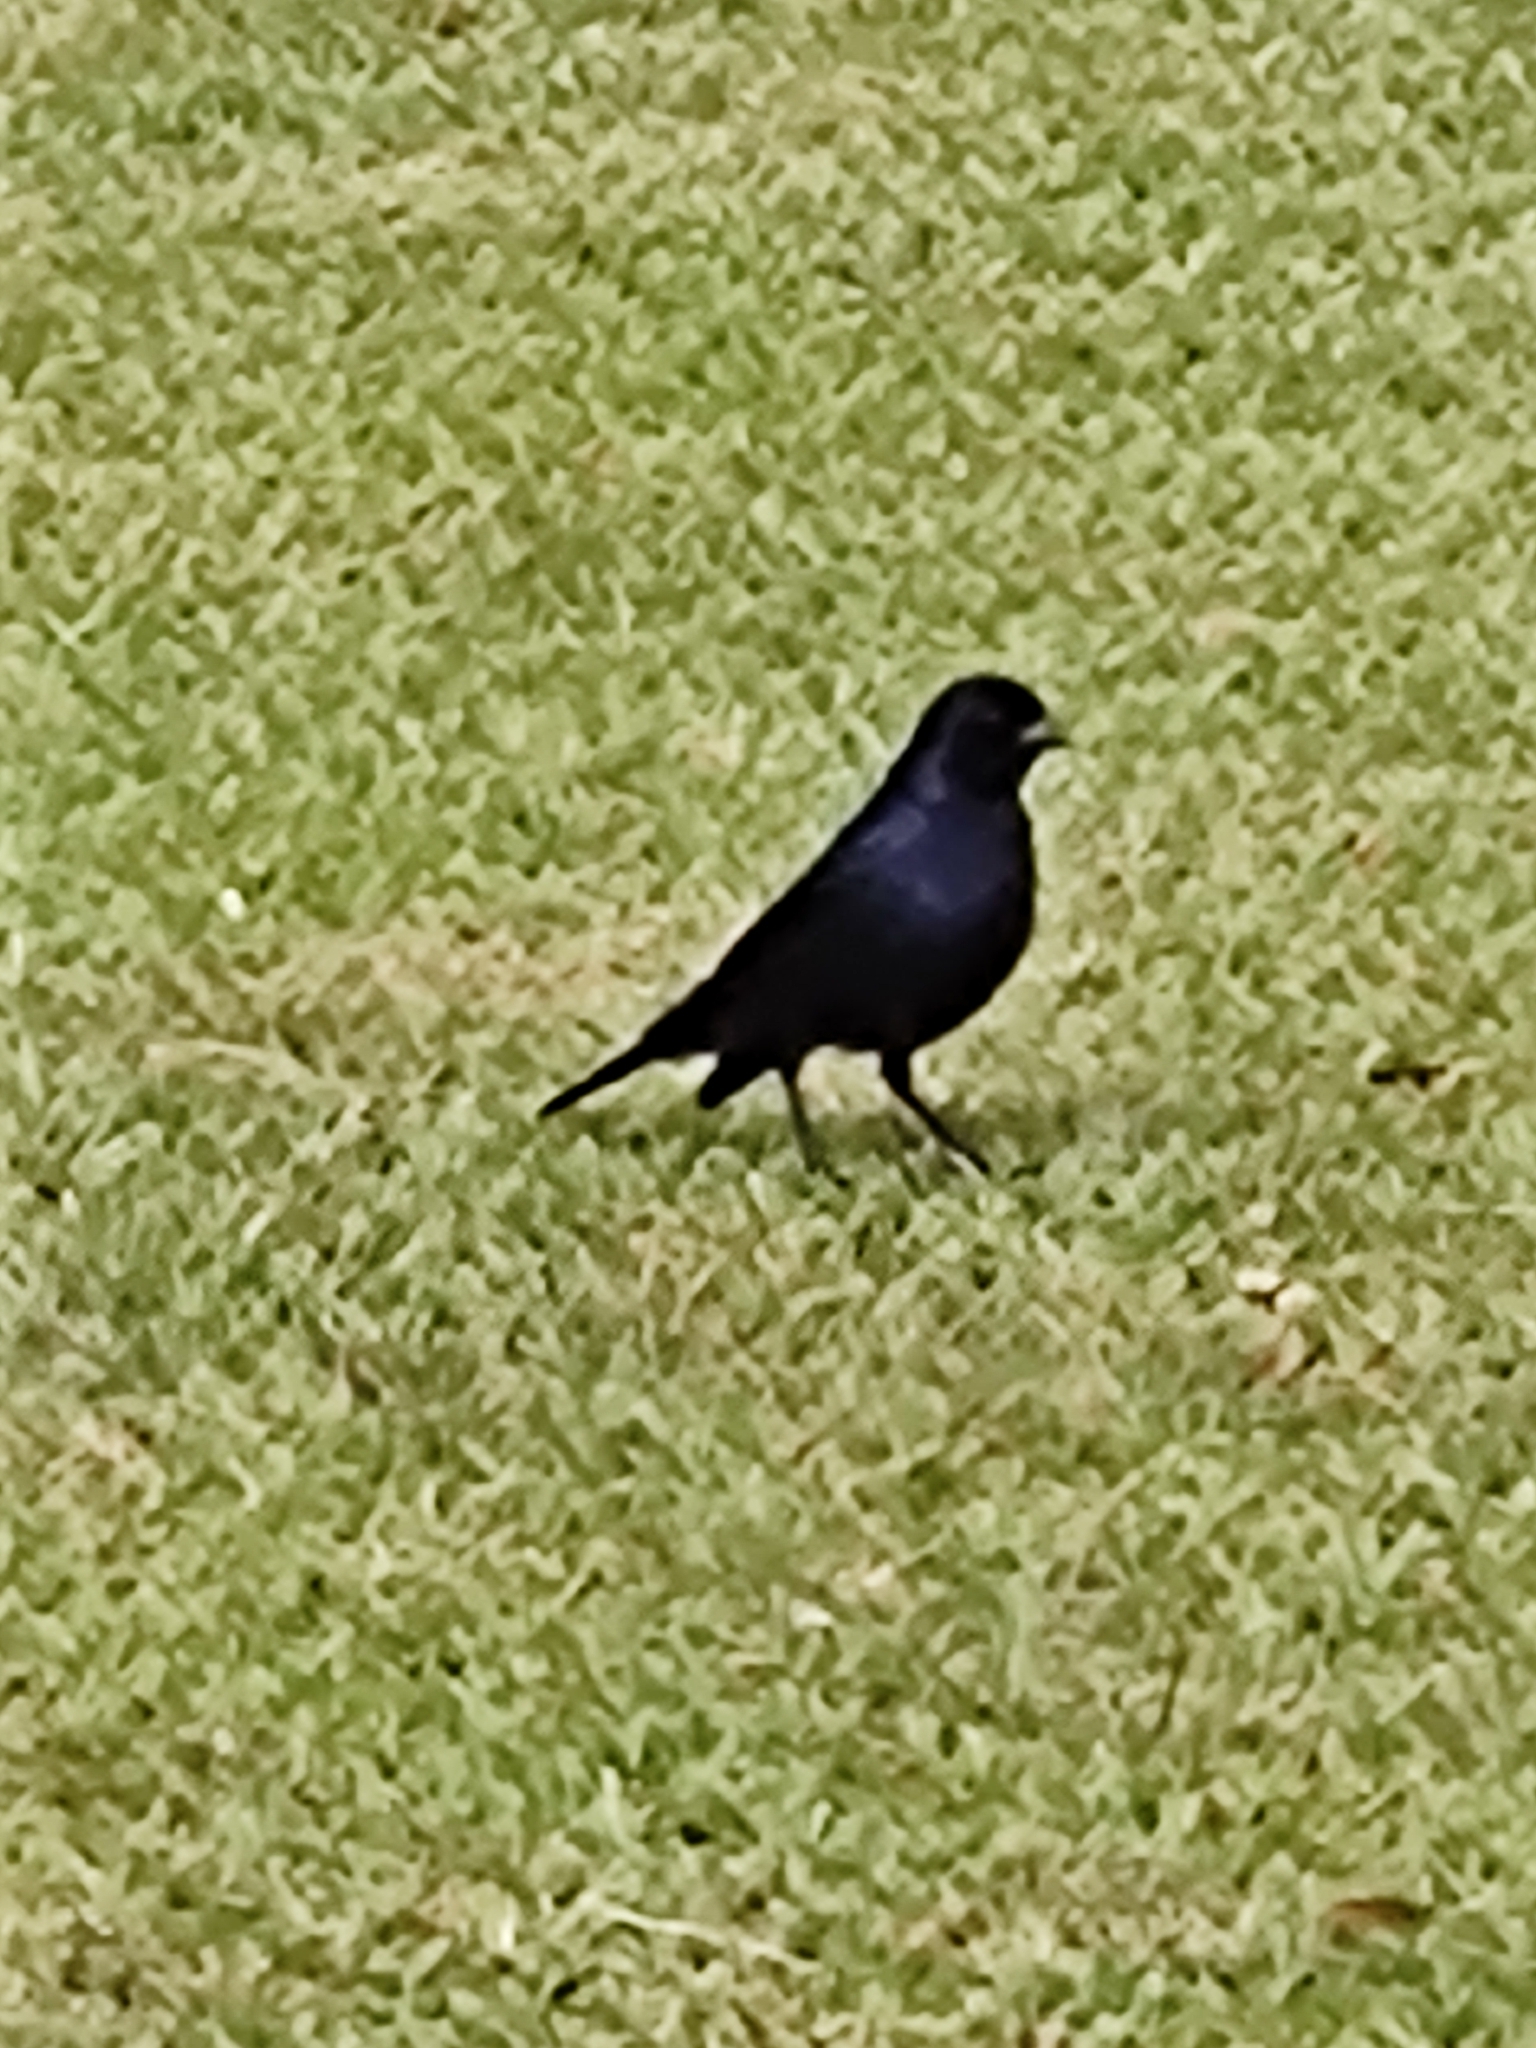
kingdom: Animalia
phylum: Chordata
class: Aves
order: Passeriformes
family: Icteridae
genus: Molothrus
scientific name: Molothrus bonariensis
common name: Shiny cowbird
